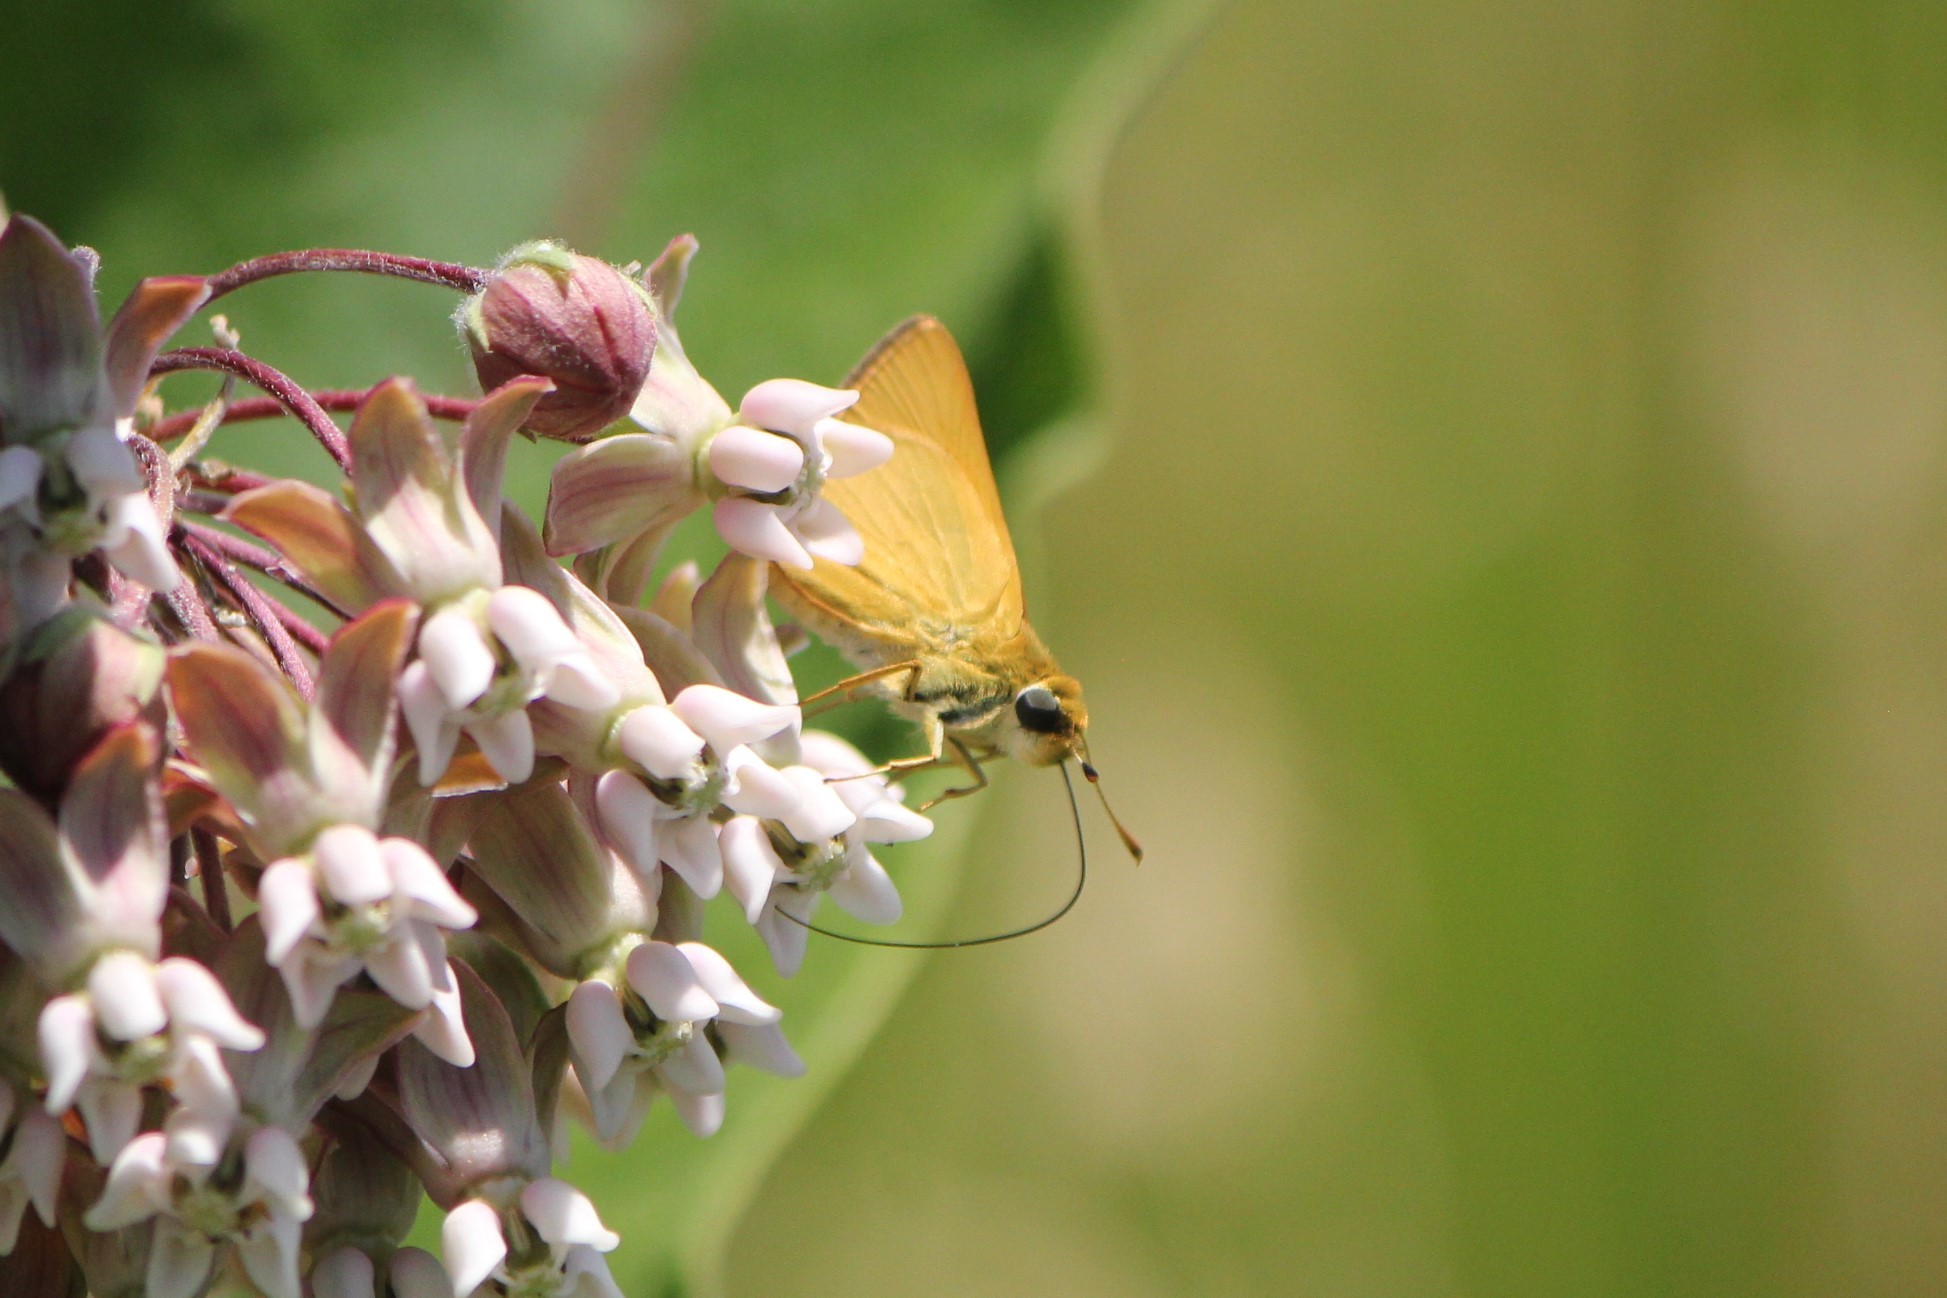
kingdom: Animalia
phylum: Arthropoda
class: Insecta
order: Lepidoptera
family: Hesperiidae
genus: Atrytone
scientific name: Atrytone delaware
